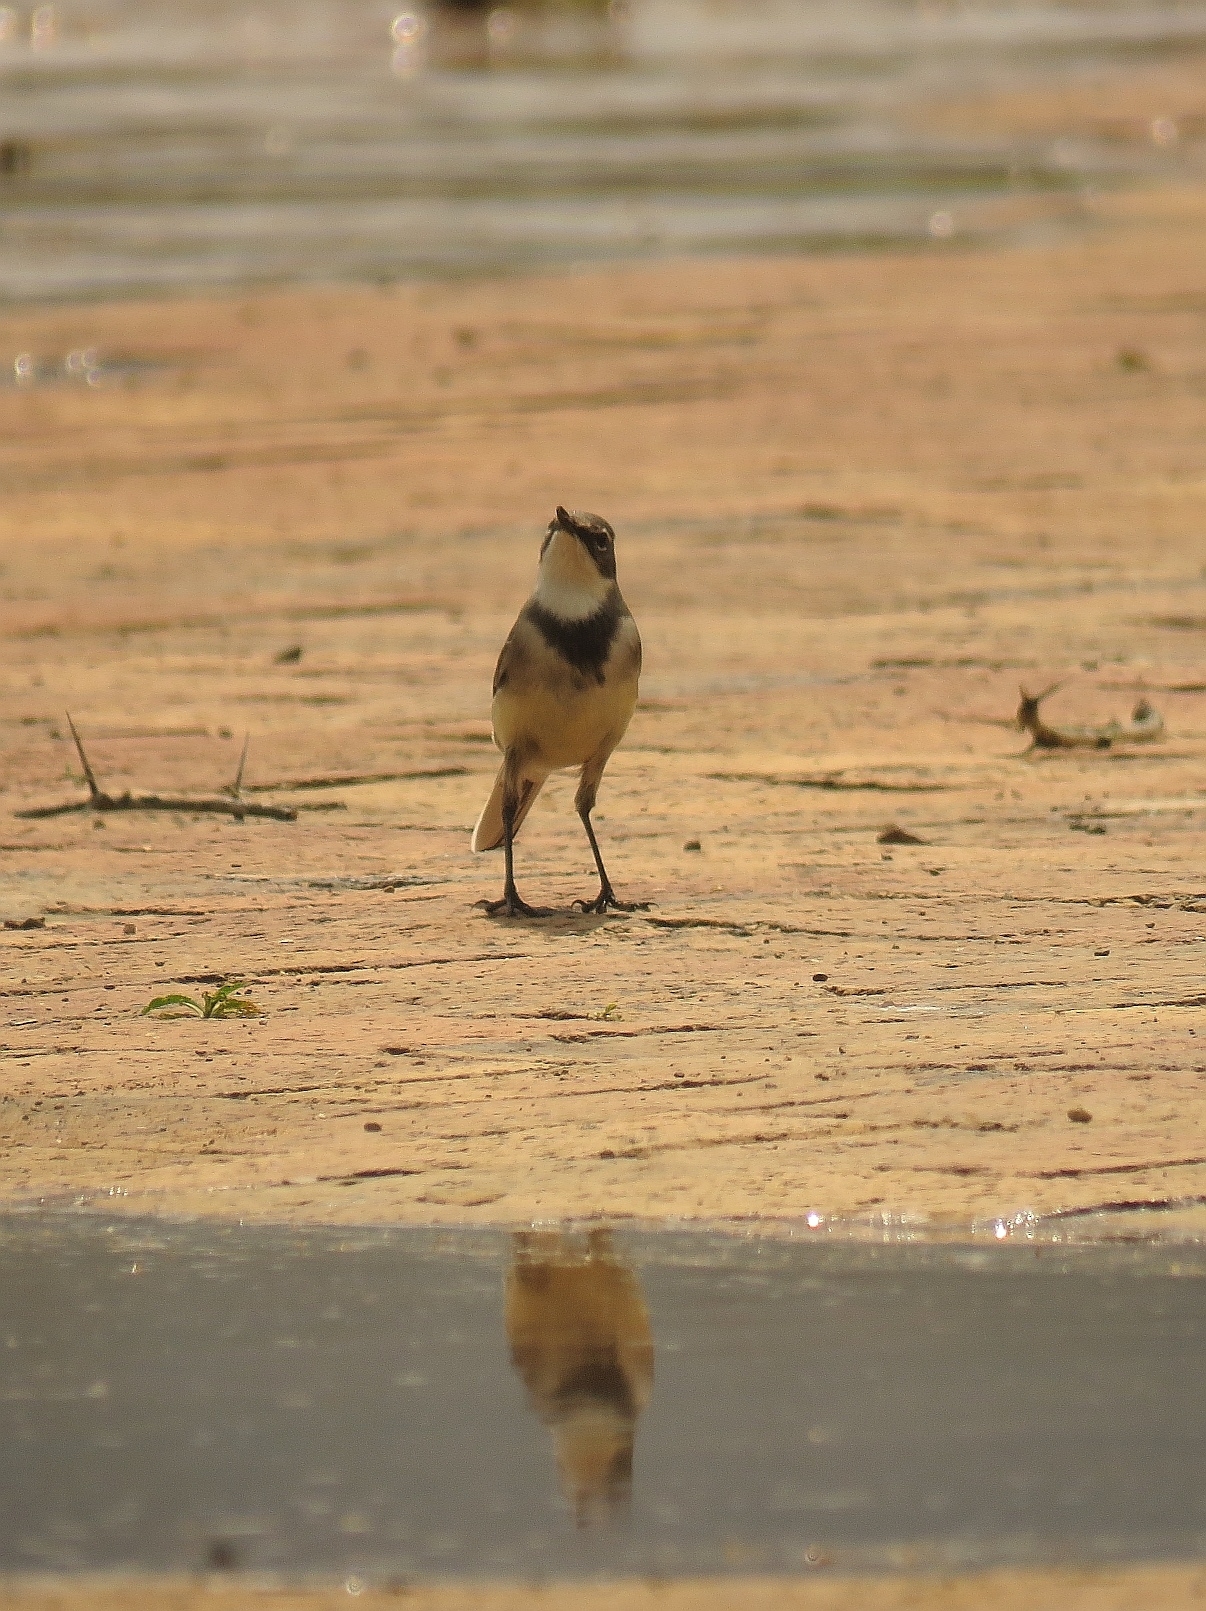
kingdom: Animalia
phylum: Chordata
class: Aves
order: Passeriformes
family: Motacillidae
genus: Motacilla
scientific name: Motacilla capensis
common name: Cape wagtail
